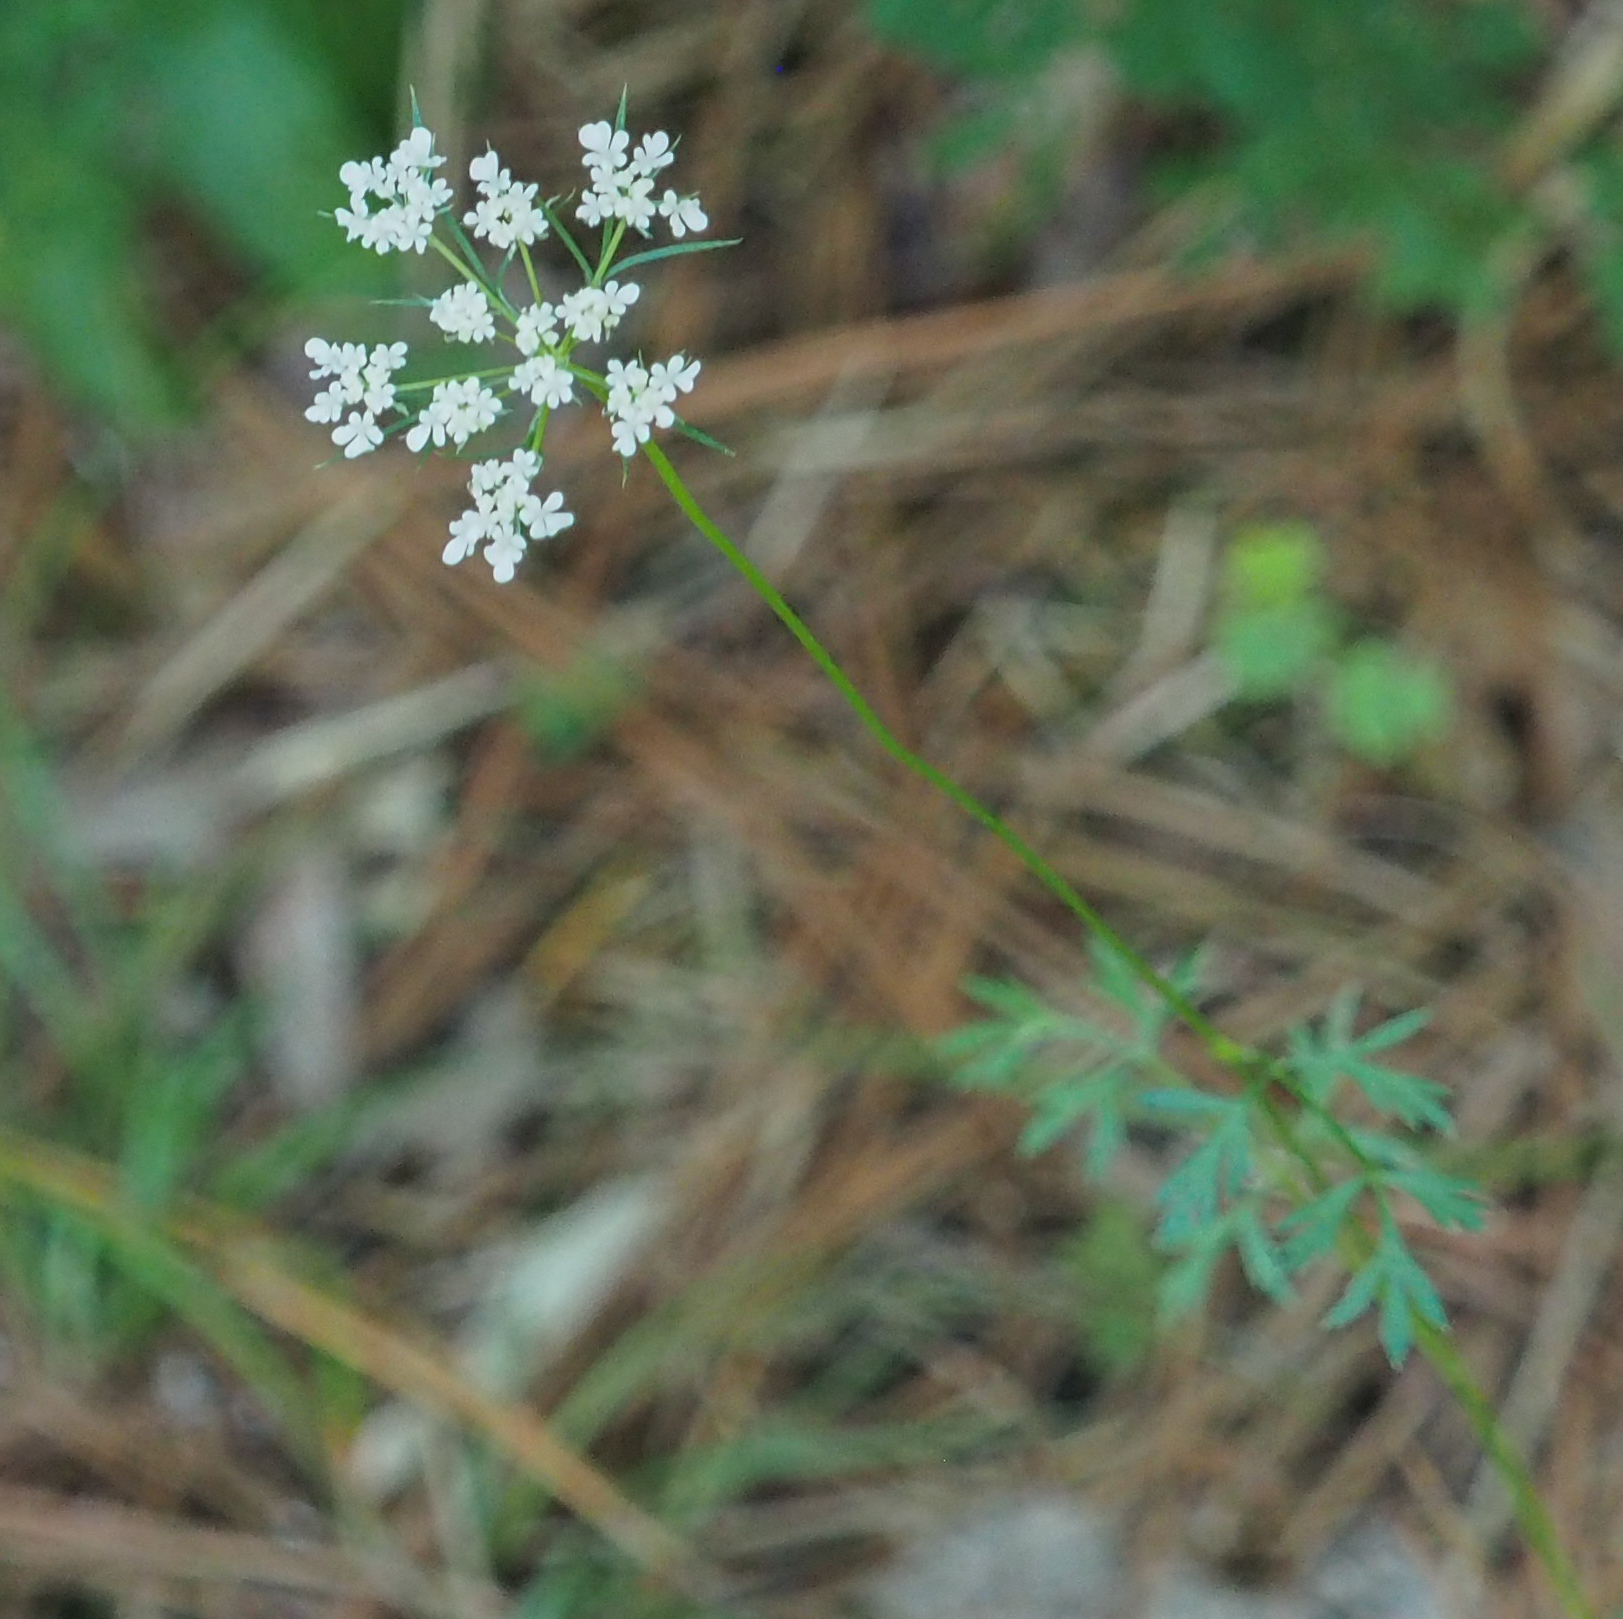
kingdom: Plantae
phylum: Tracheophyta
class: Magnoliopsida
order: Apiales
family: Apiaceae
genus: Daucus
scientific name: Daucus carota
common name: Wild carrot
